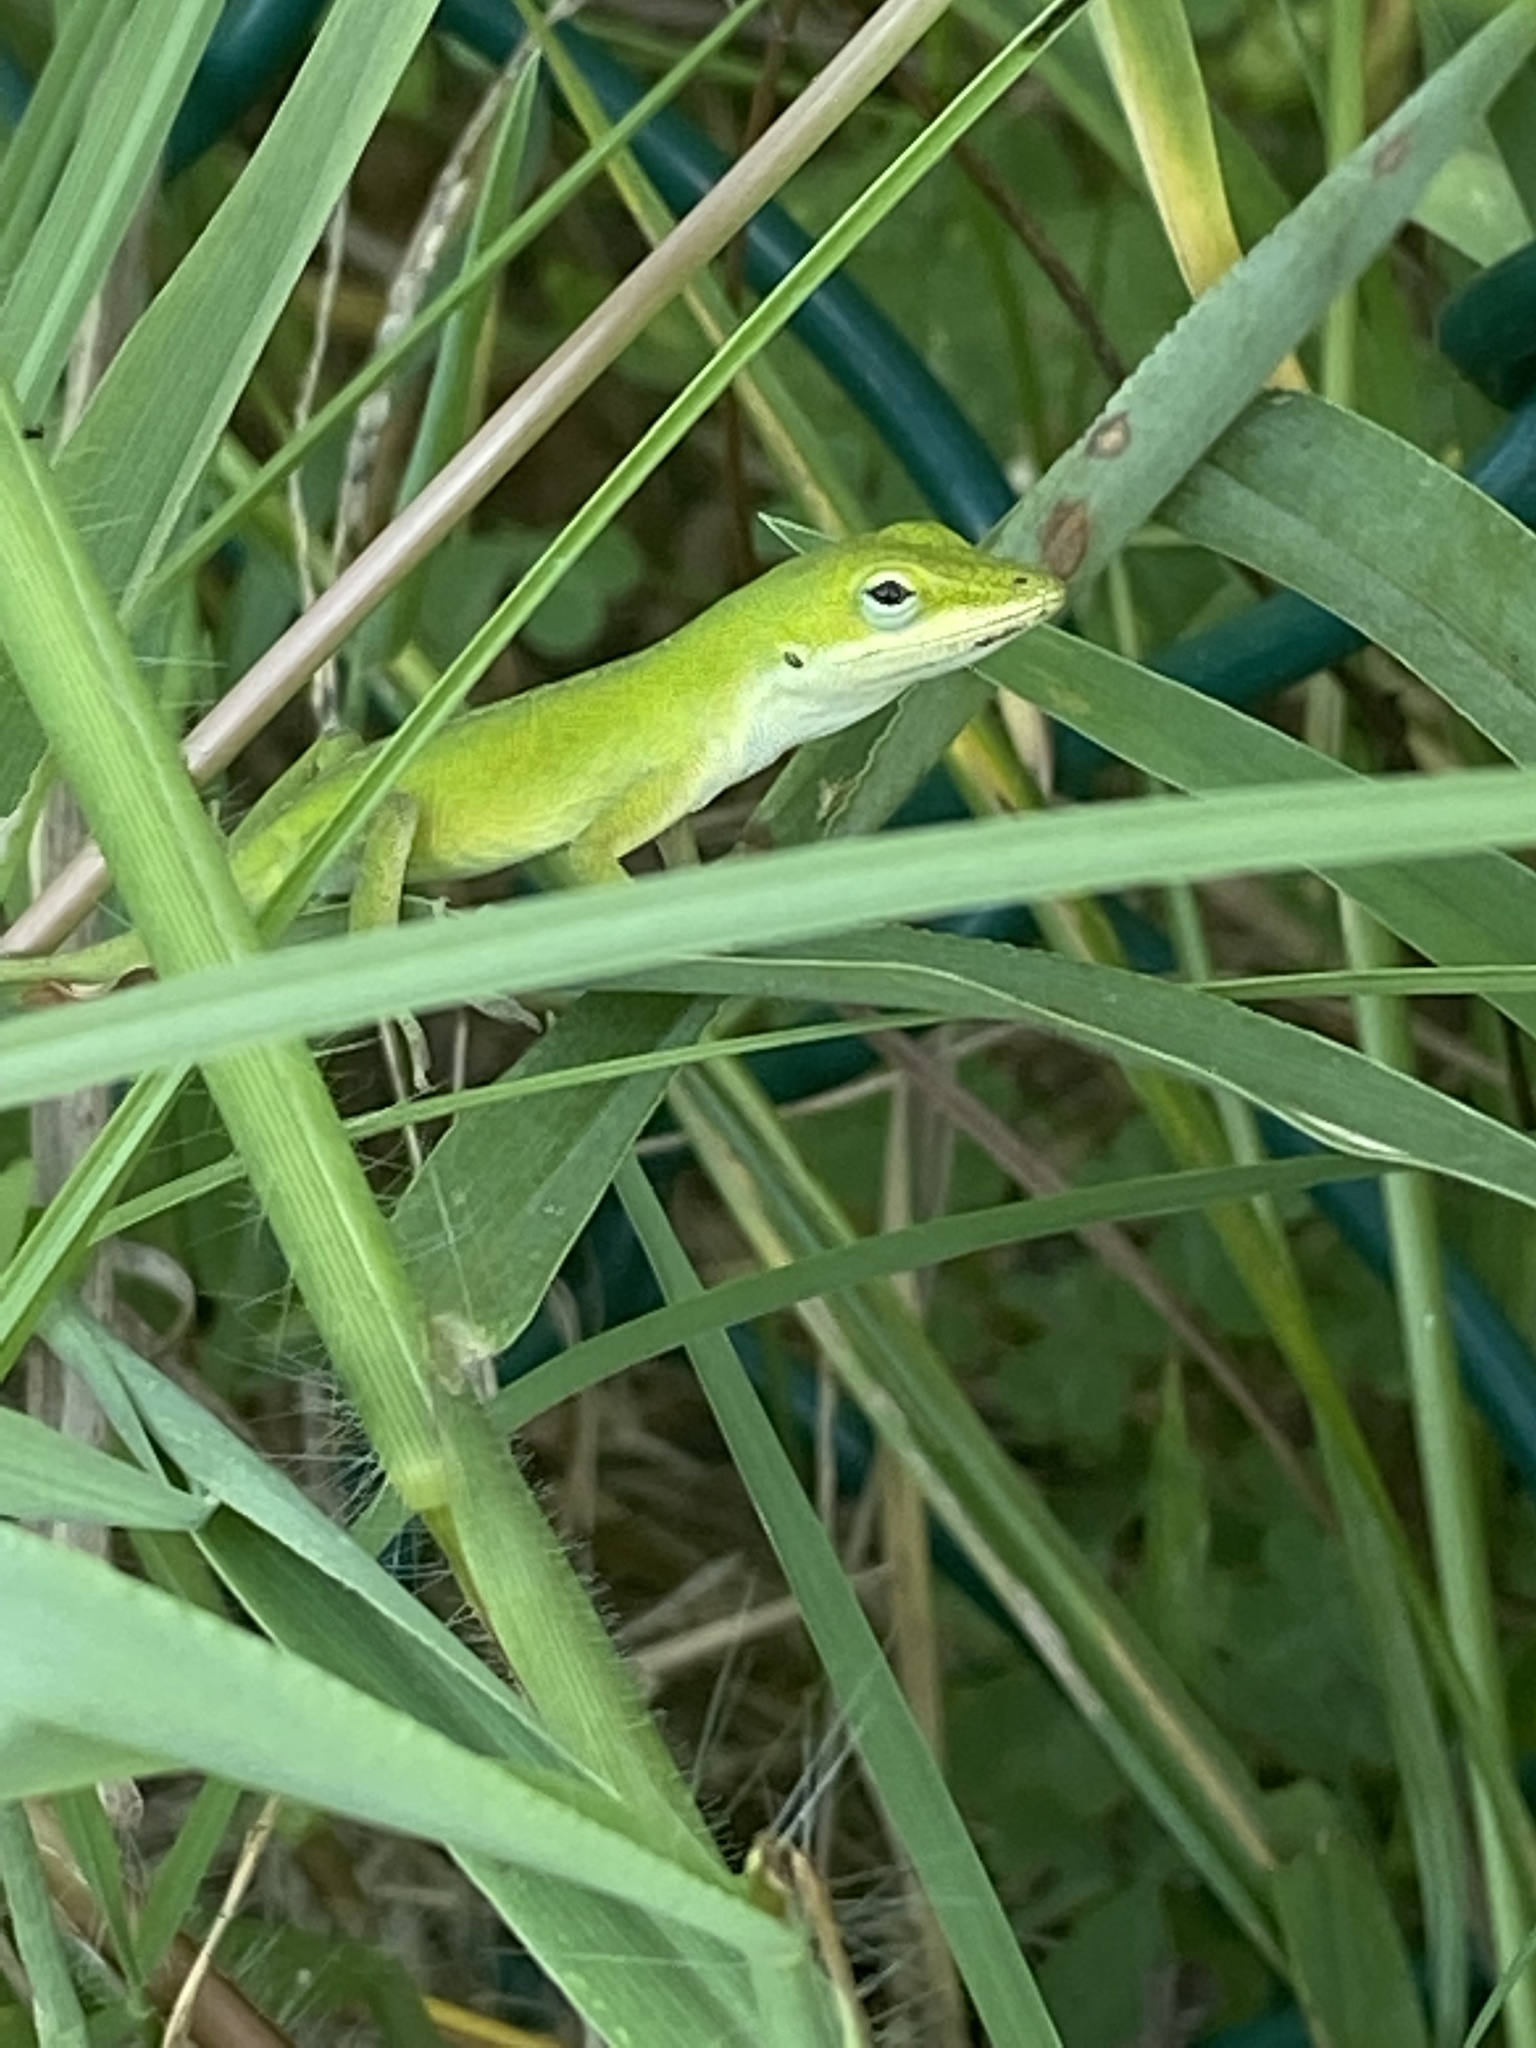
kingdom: Animalia
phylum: Chordata
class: Squamata
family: Dactyloidae
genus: Anolis
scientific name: Anolis carolinensis
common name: Green anole
